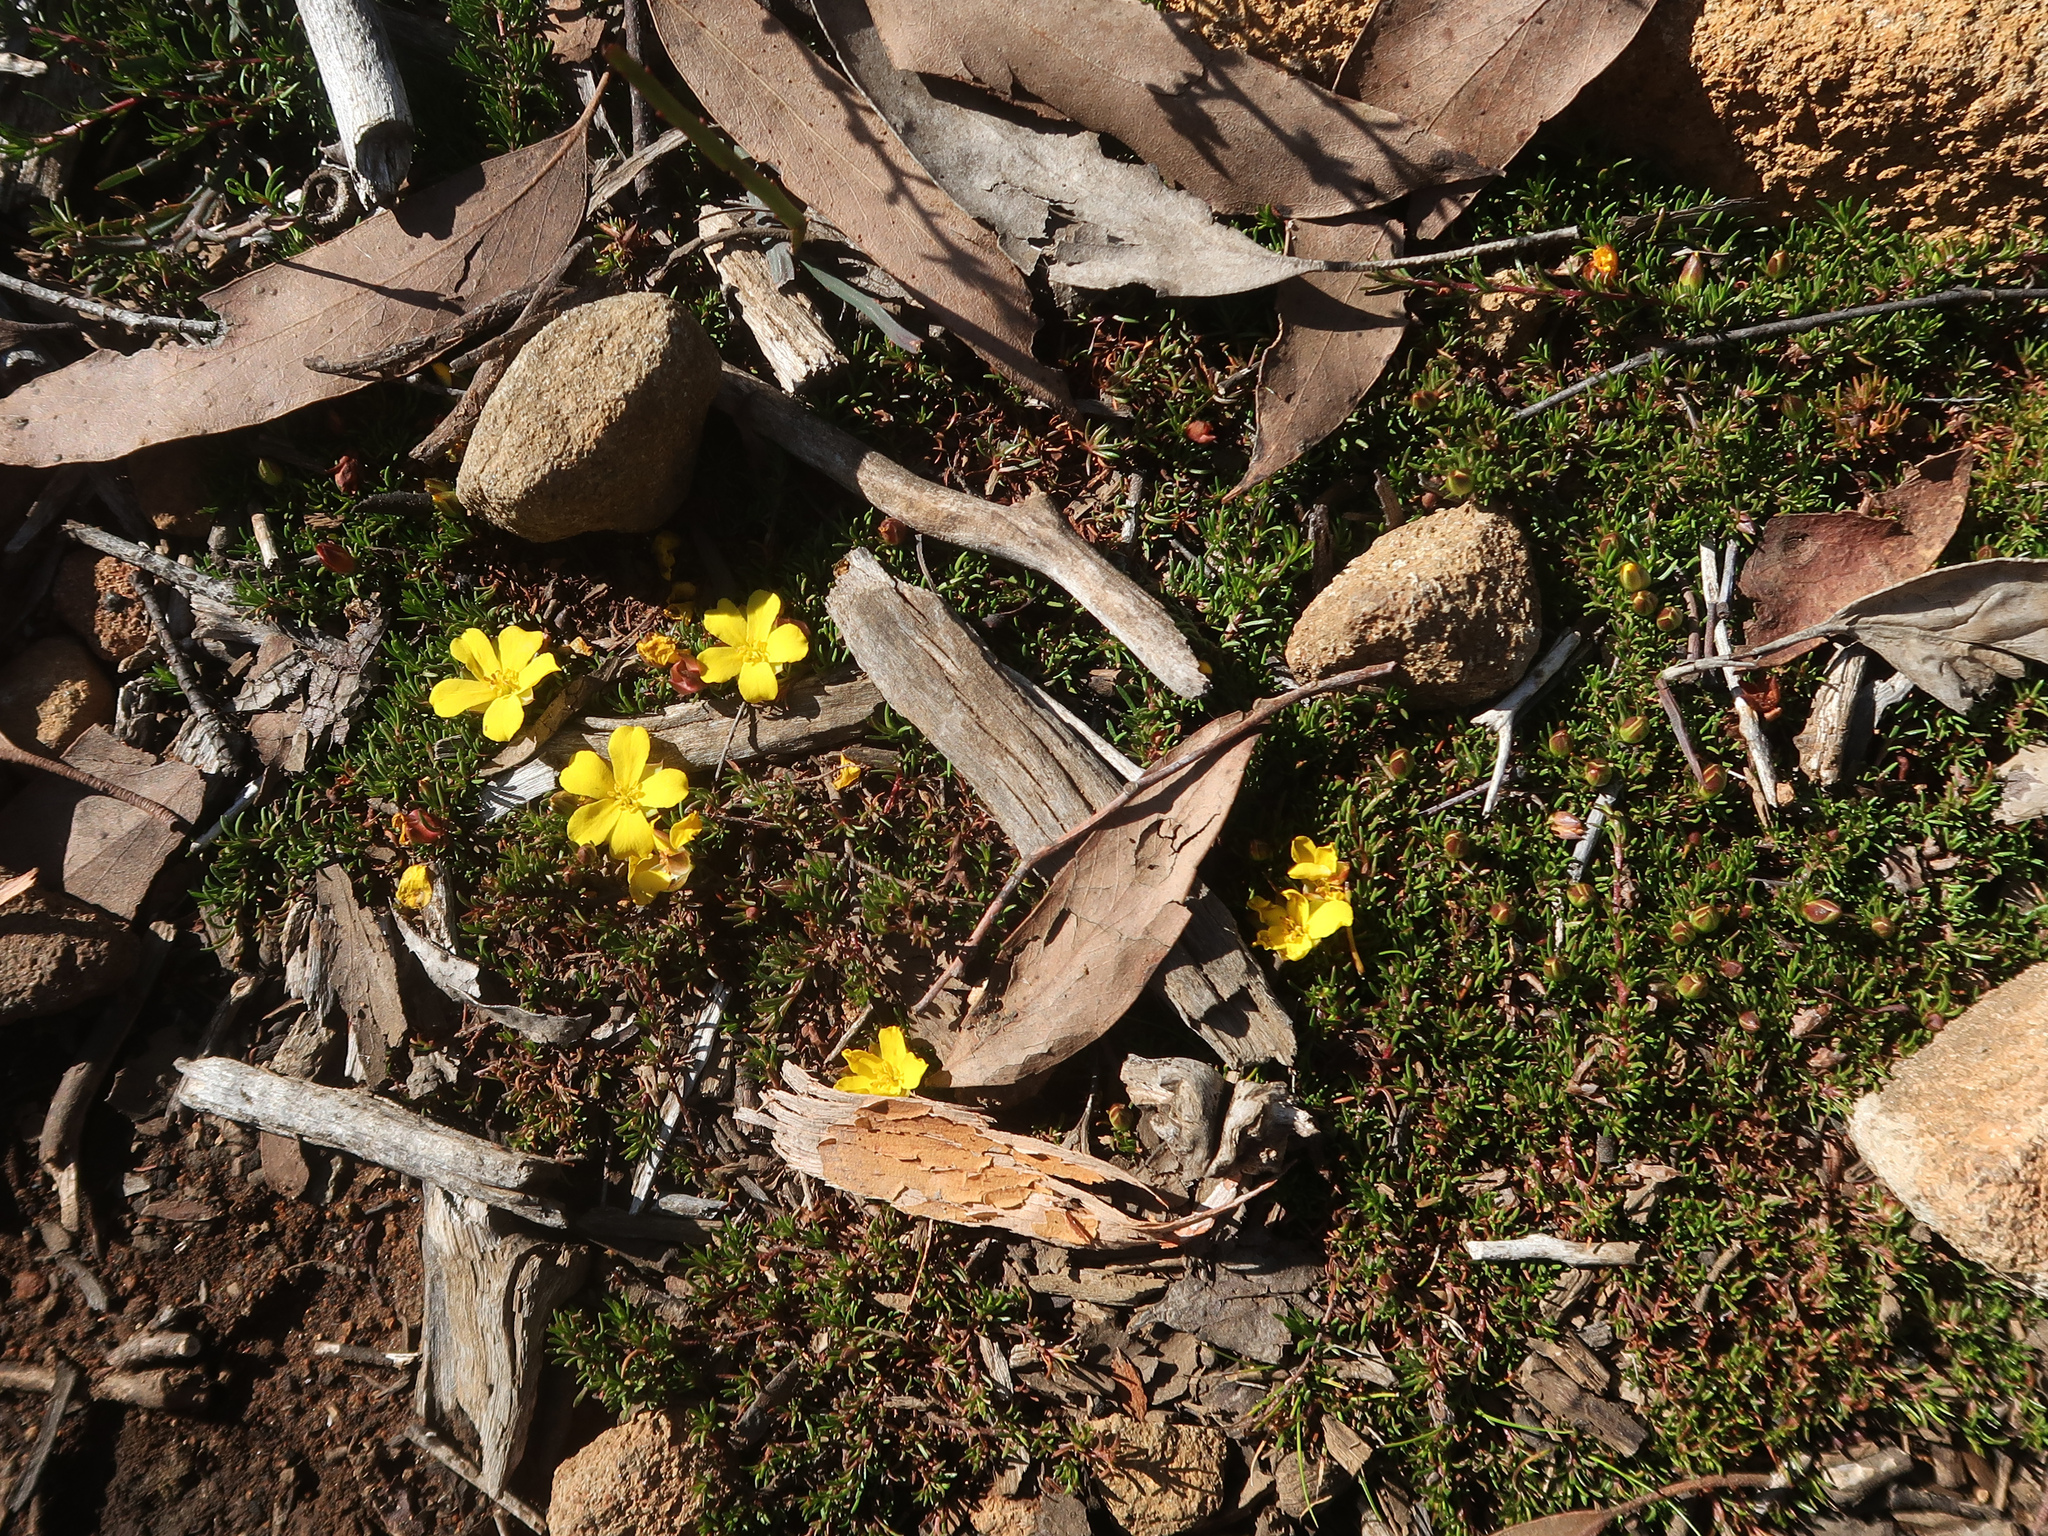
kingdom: Plantae
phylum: Tracheophyta
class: Magnoliopsida
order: Dilleniales
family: Dilleniaceae
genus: Hibbertia
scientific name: Hibbertia procumbens
